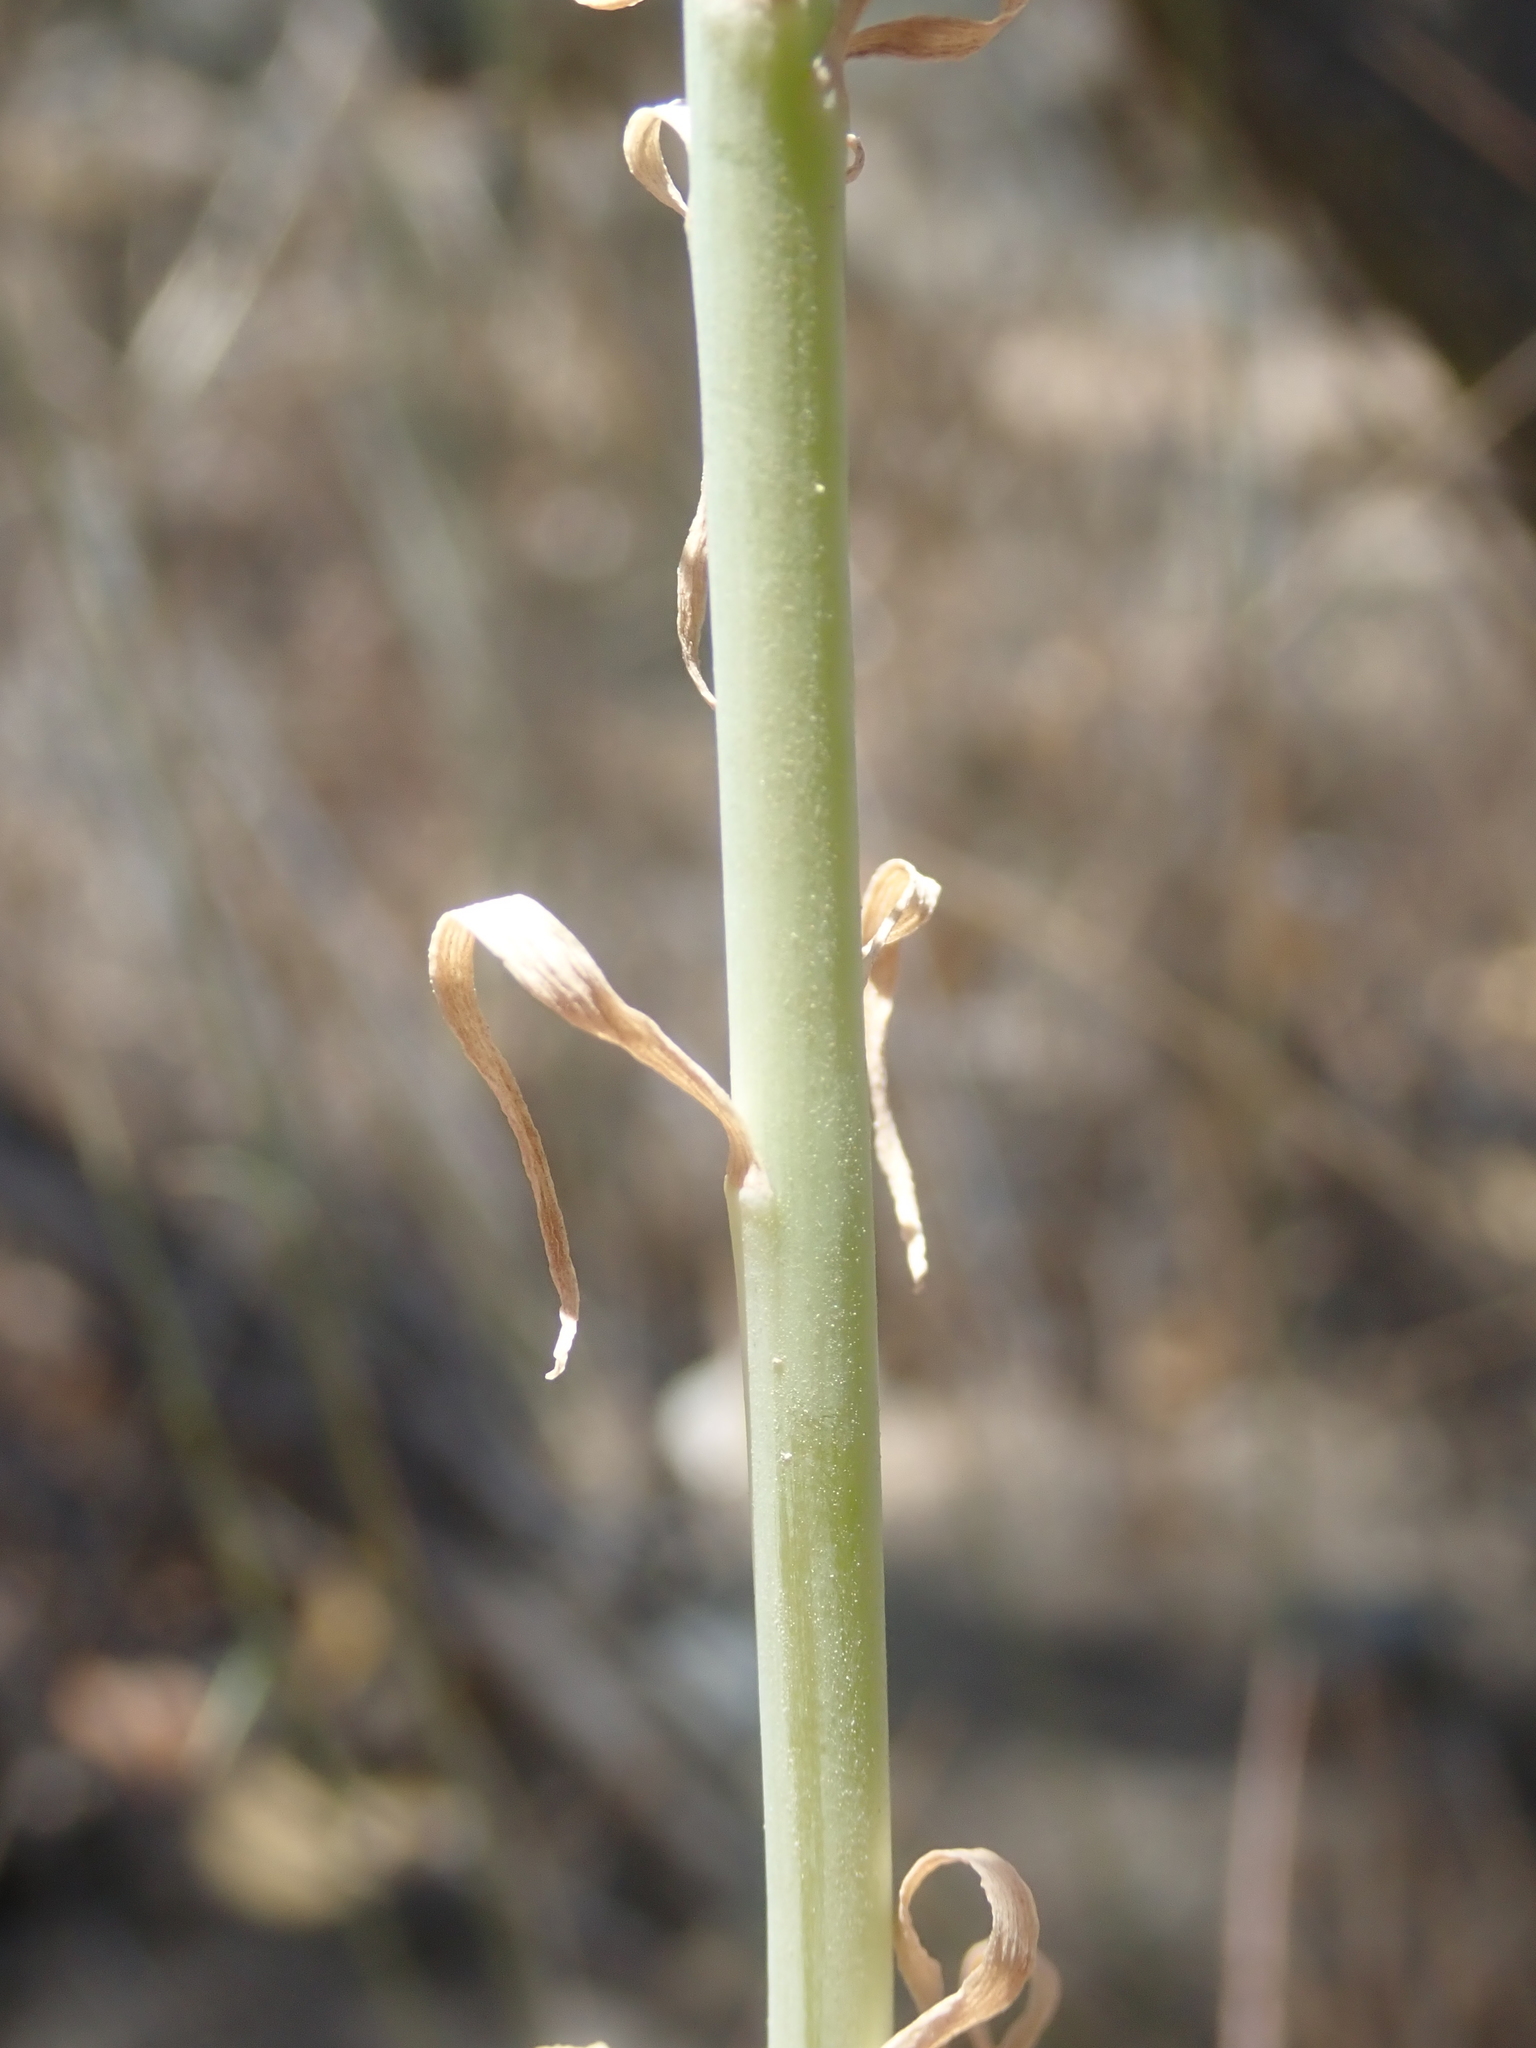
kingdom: Plantae
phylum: Tracheophyta
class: Liliopsida
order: Liliales
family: Alstroemeriaceae
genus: Alstroemeria
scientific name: Alstroemeria versicolor
